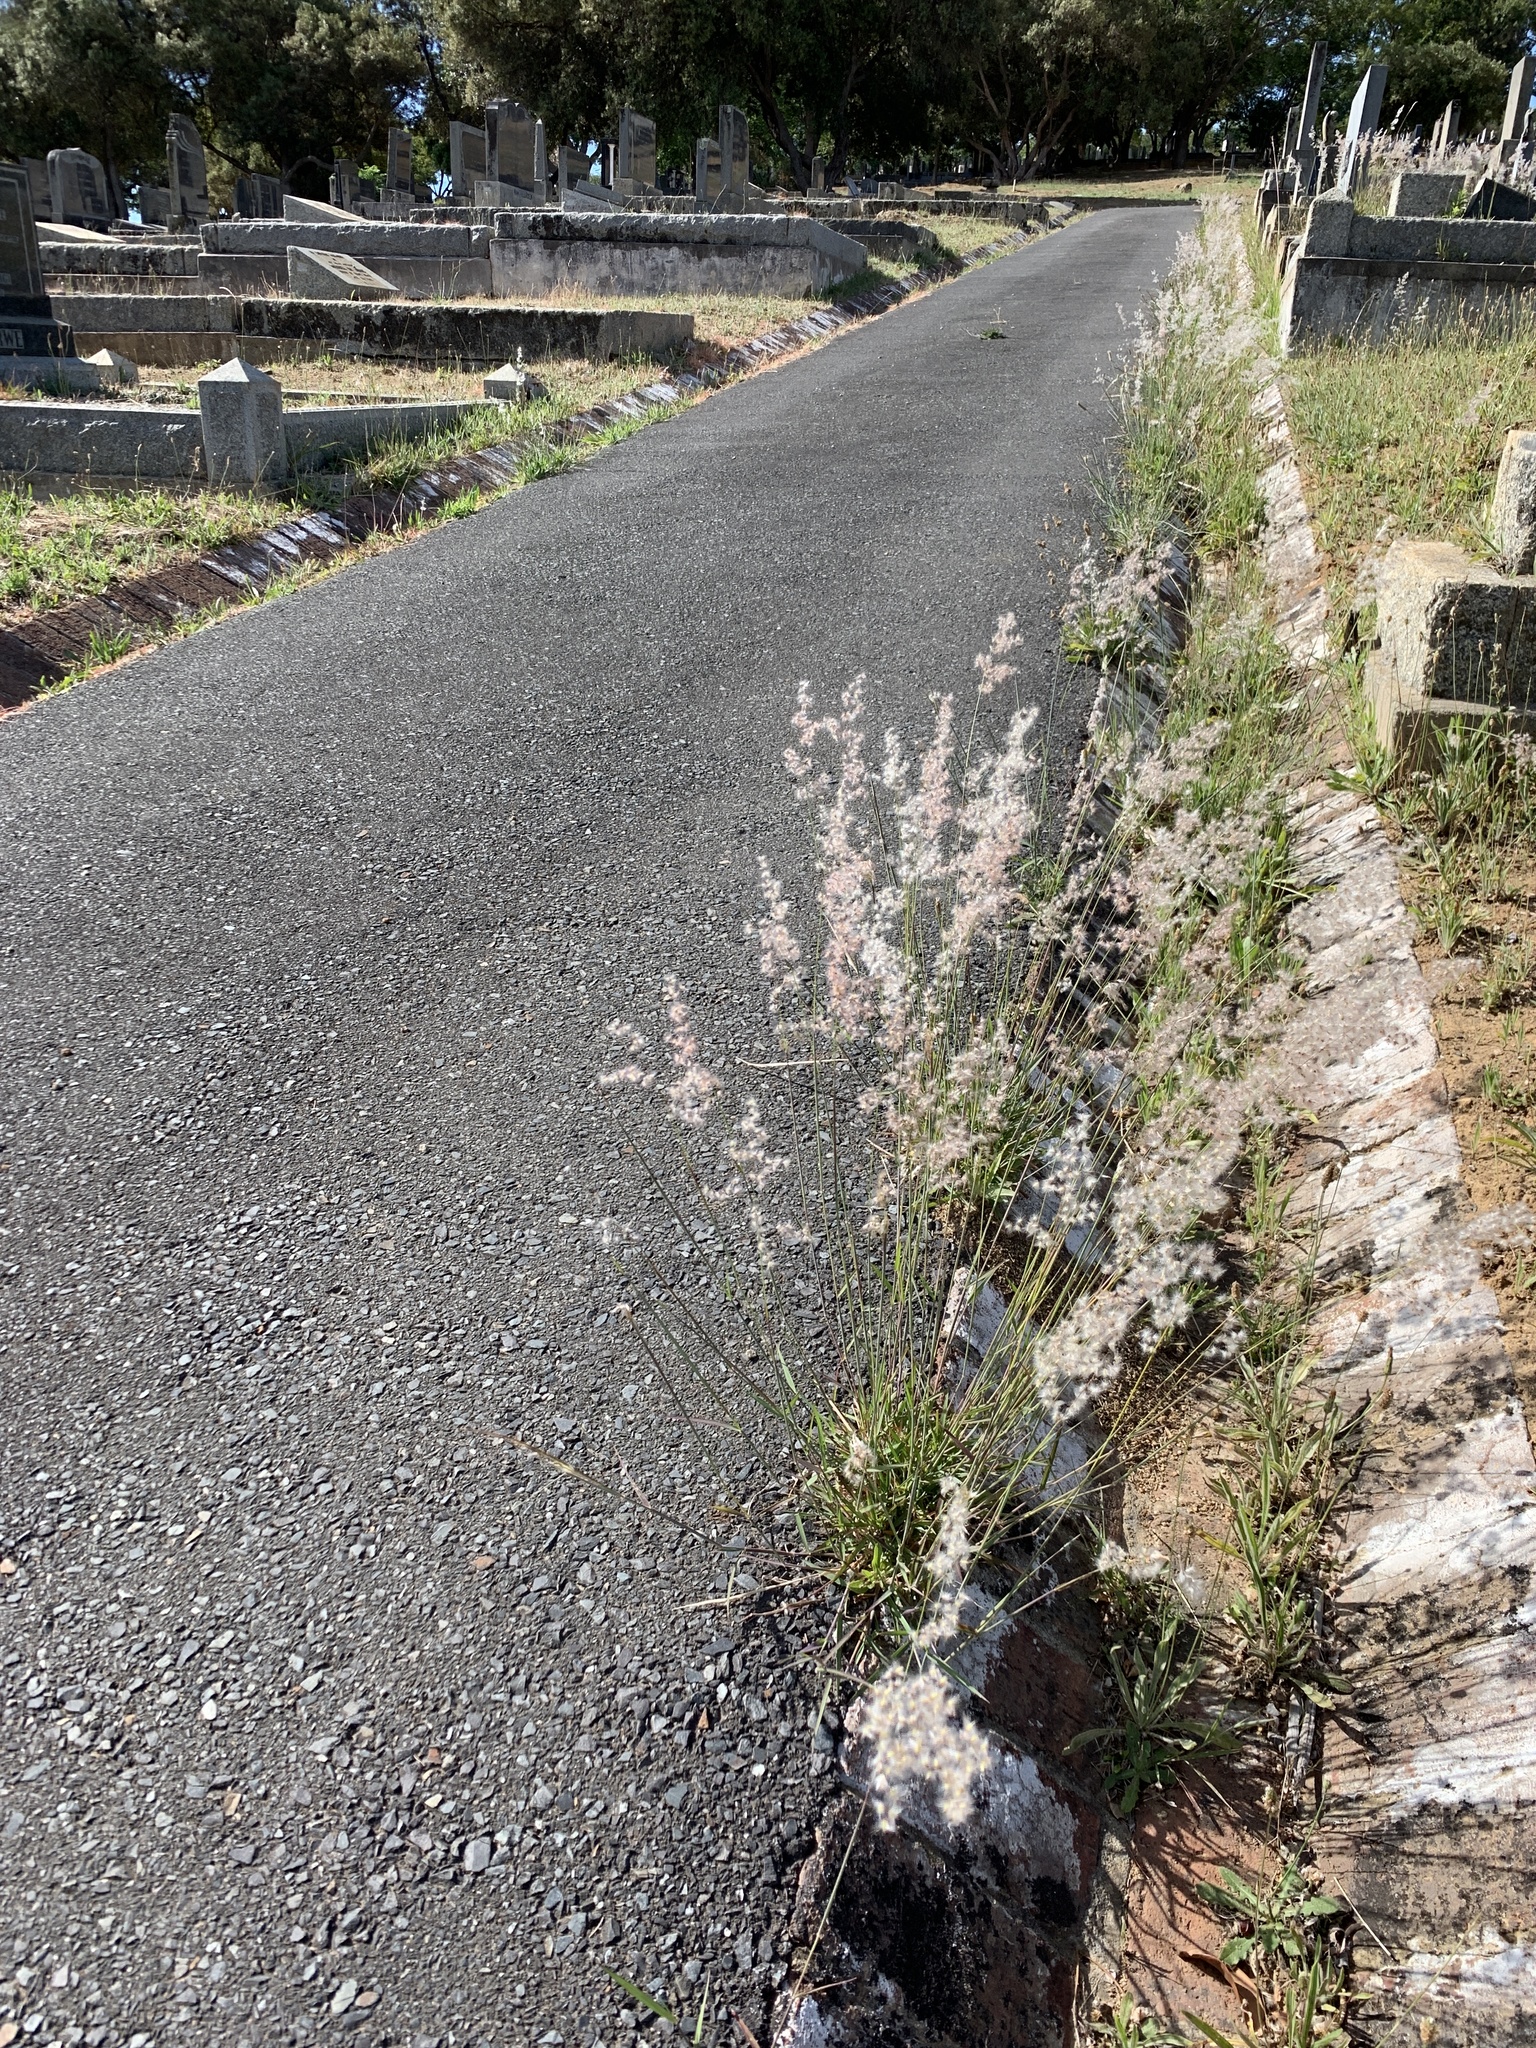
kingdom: Plantae
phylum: Tracheophyta
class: Liliopsida
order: Poales
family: Poaceae
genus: Melinis
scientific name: Melinis repens
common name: Rose natal grass
